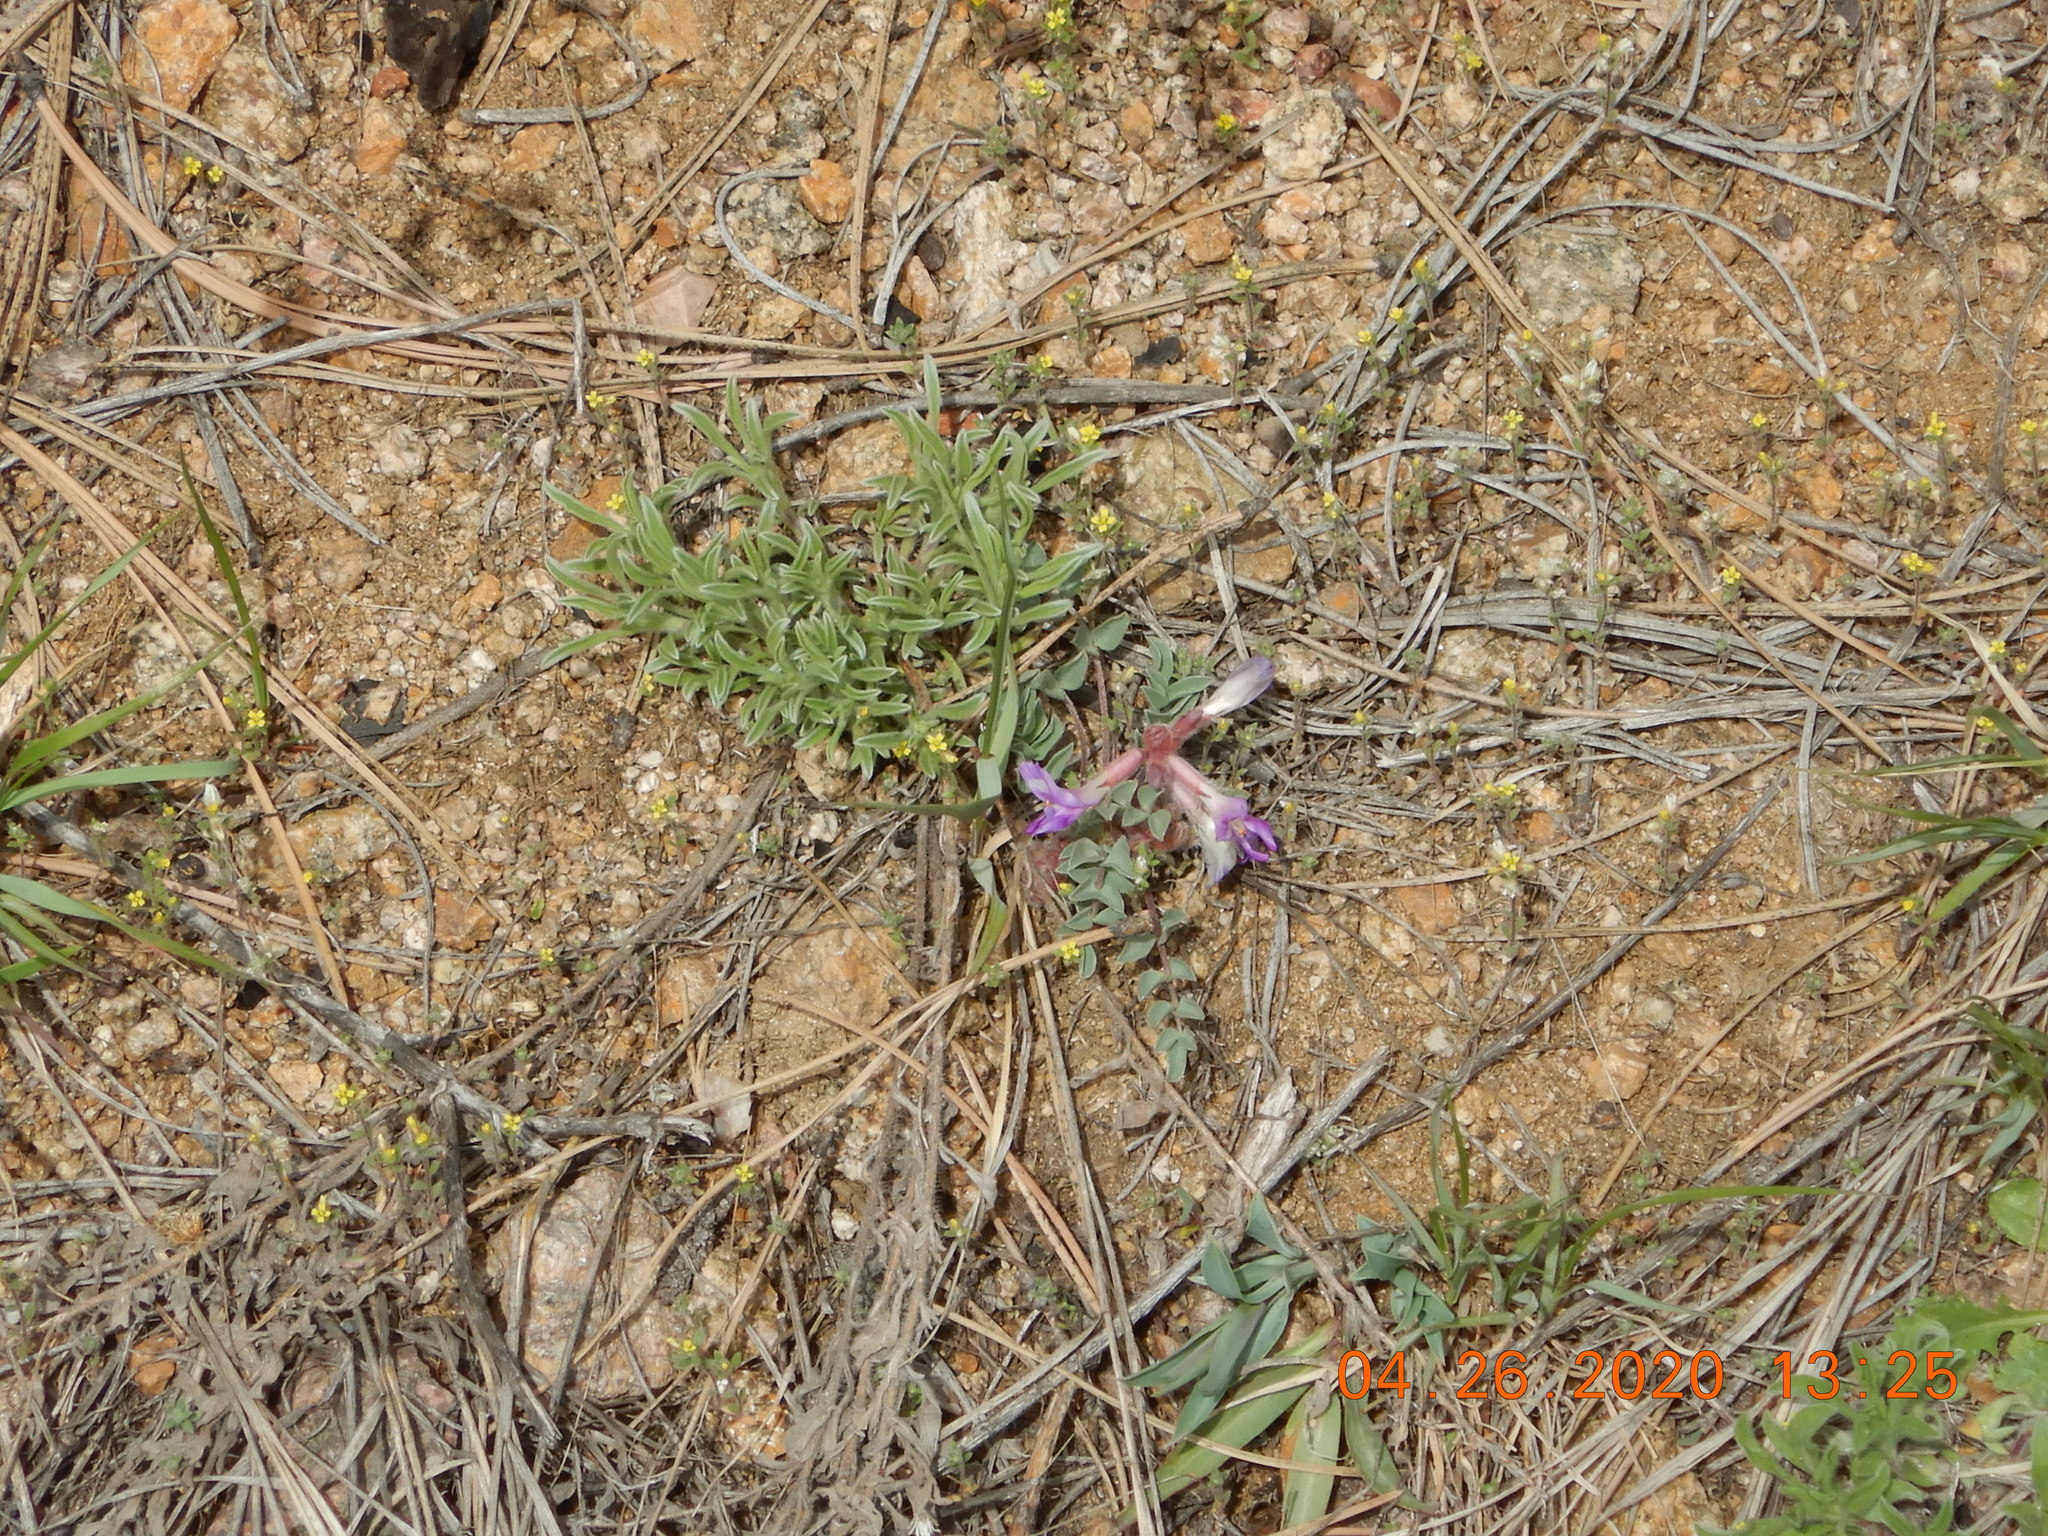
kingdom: Plantae
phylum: Tracheophyta
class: Magnoliopsida
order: Fabales
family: Fabaceae
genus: Astragalus
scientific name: Astragalus shortianus
